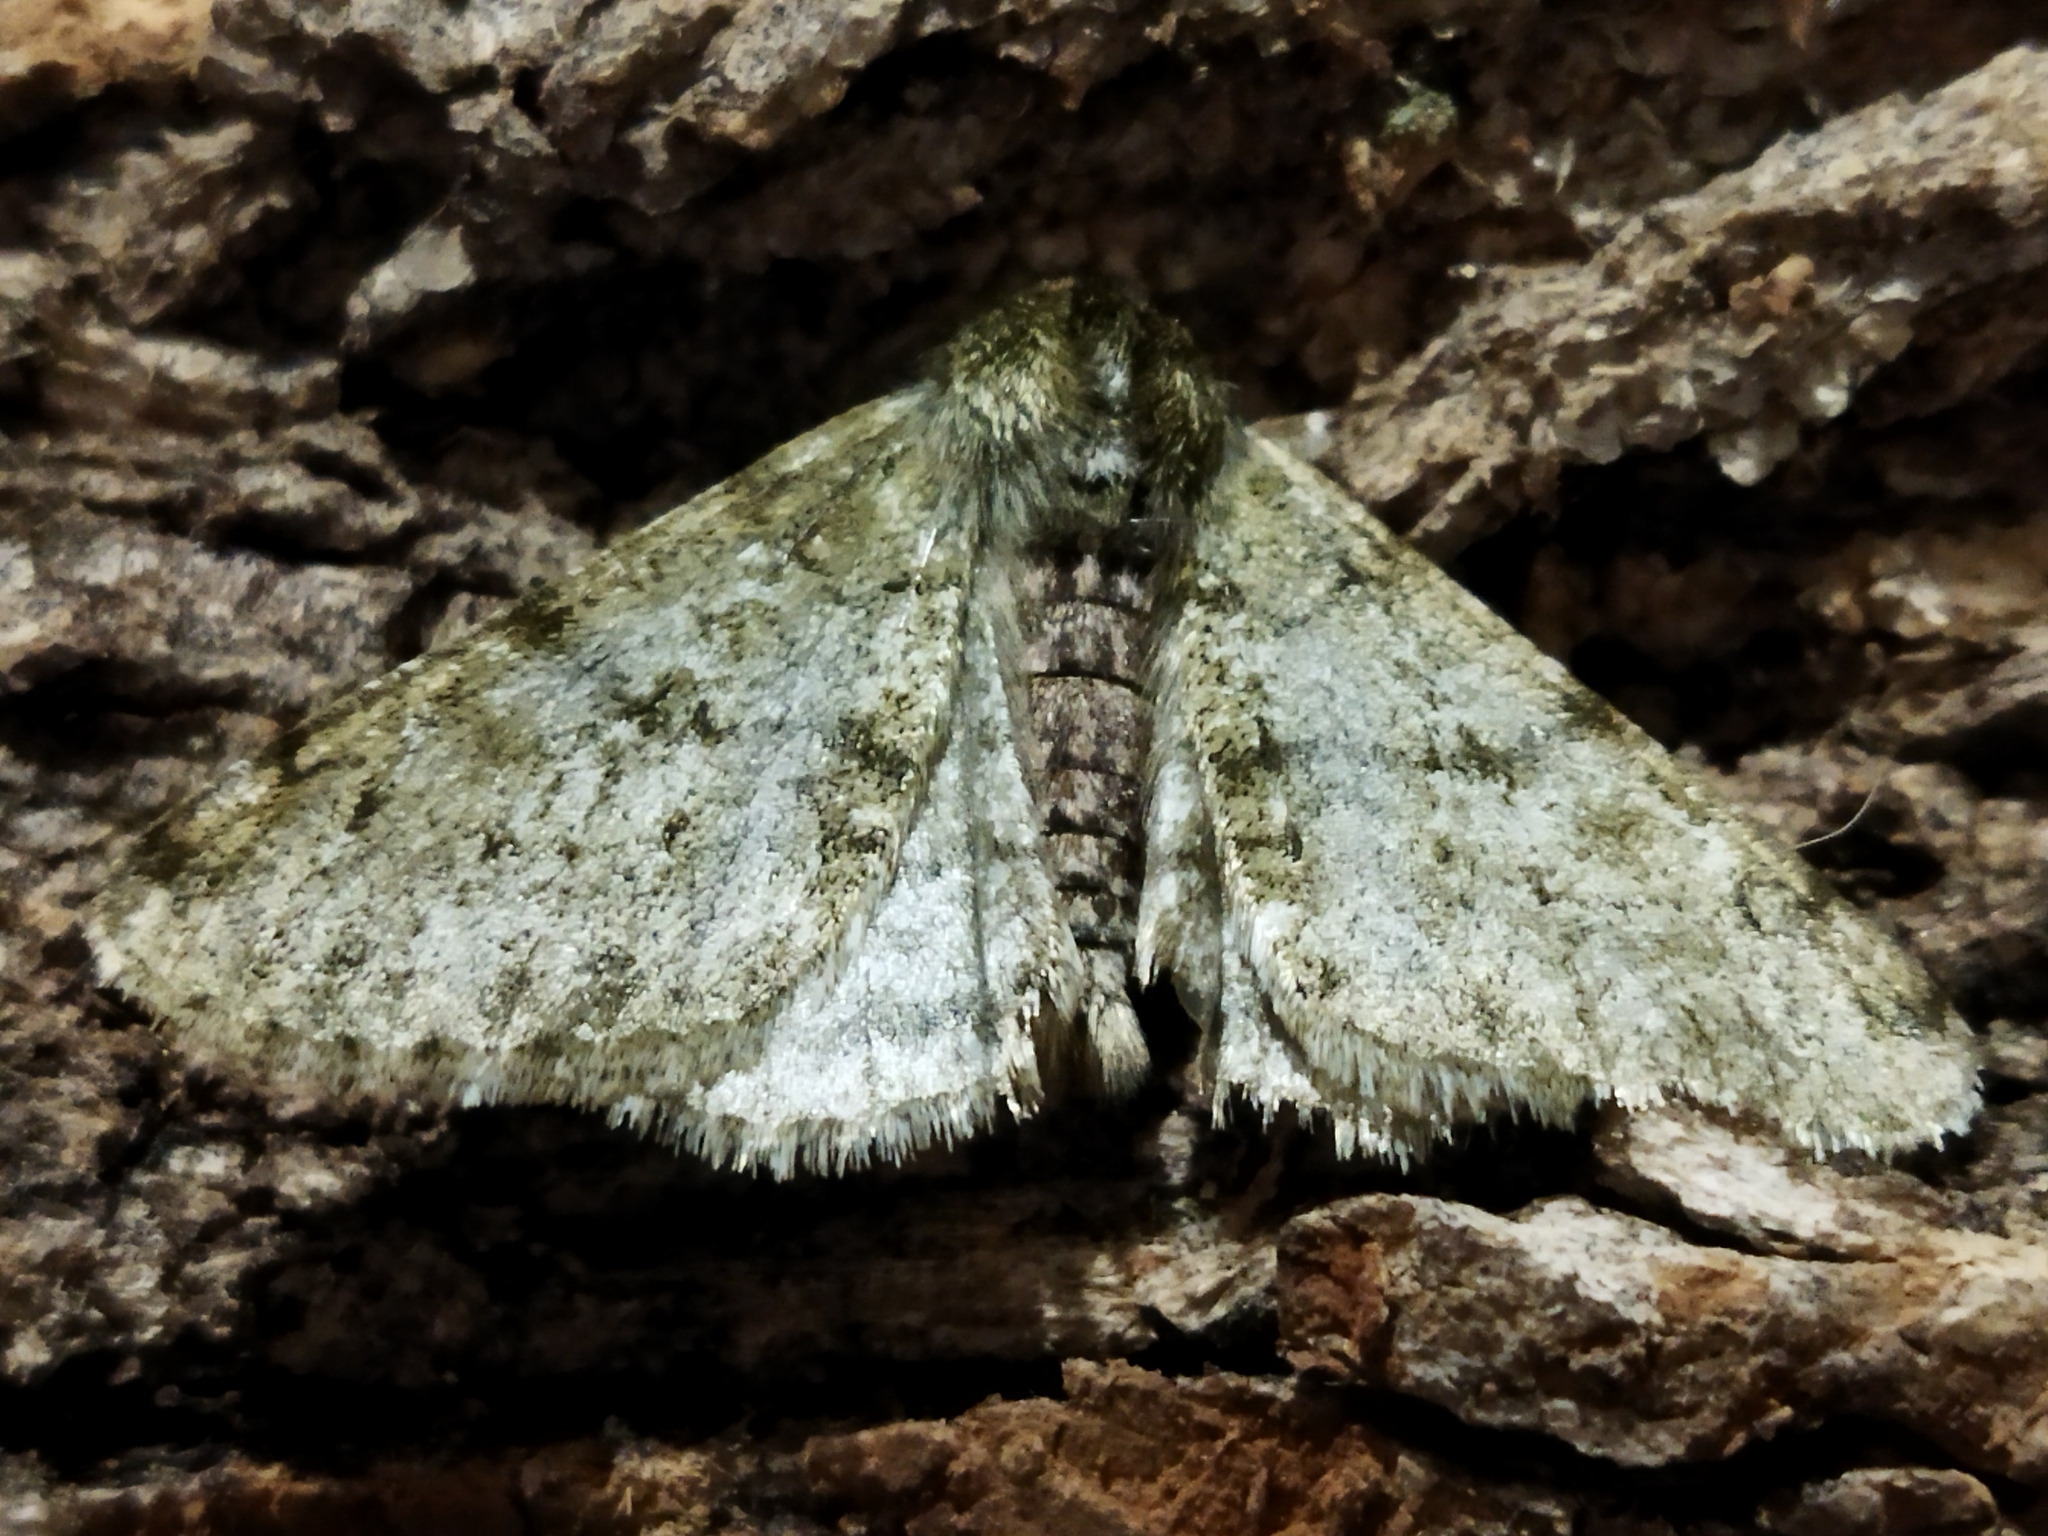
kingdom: Animalia
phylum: Arthropoda
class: Insecta
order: Lepidoptera
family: Geometridae
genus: Phigalia
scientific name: Phigalia pilosaria
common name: Pale brindled beauty
